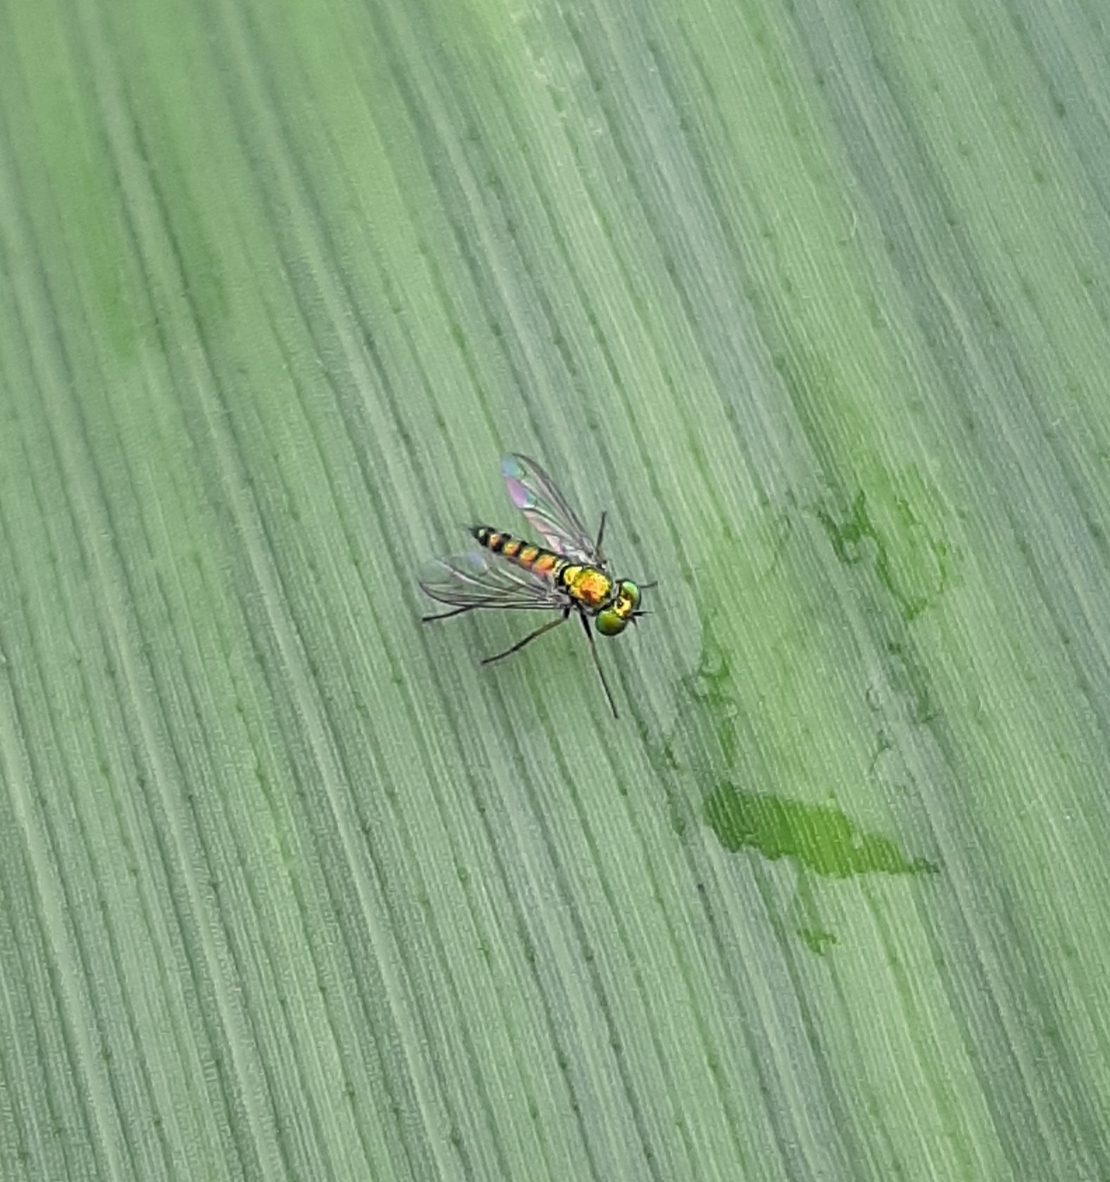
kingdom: Animalia
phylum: Arthropoda
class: Insecta
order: Diptera
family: Dolichopodidae
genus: Condylostylus
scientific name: Condylostylus caudatus
